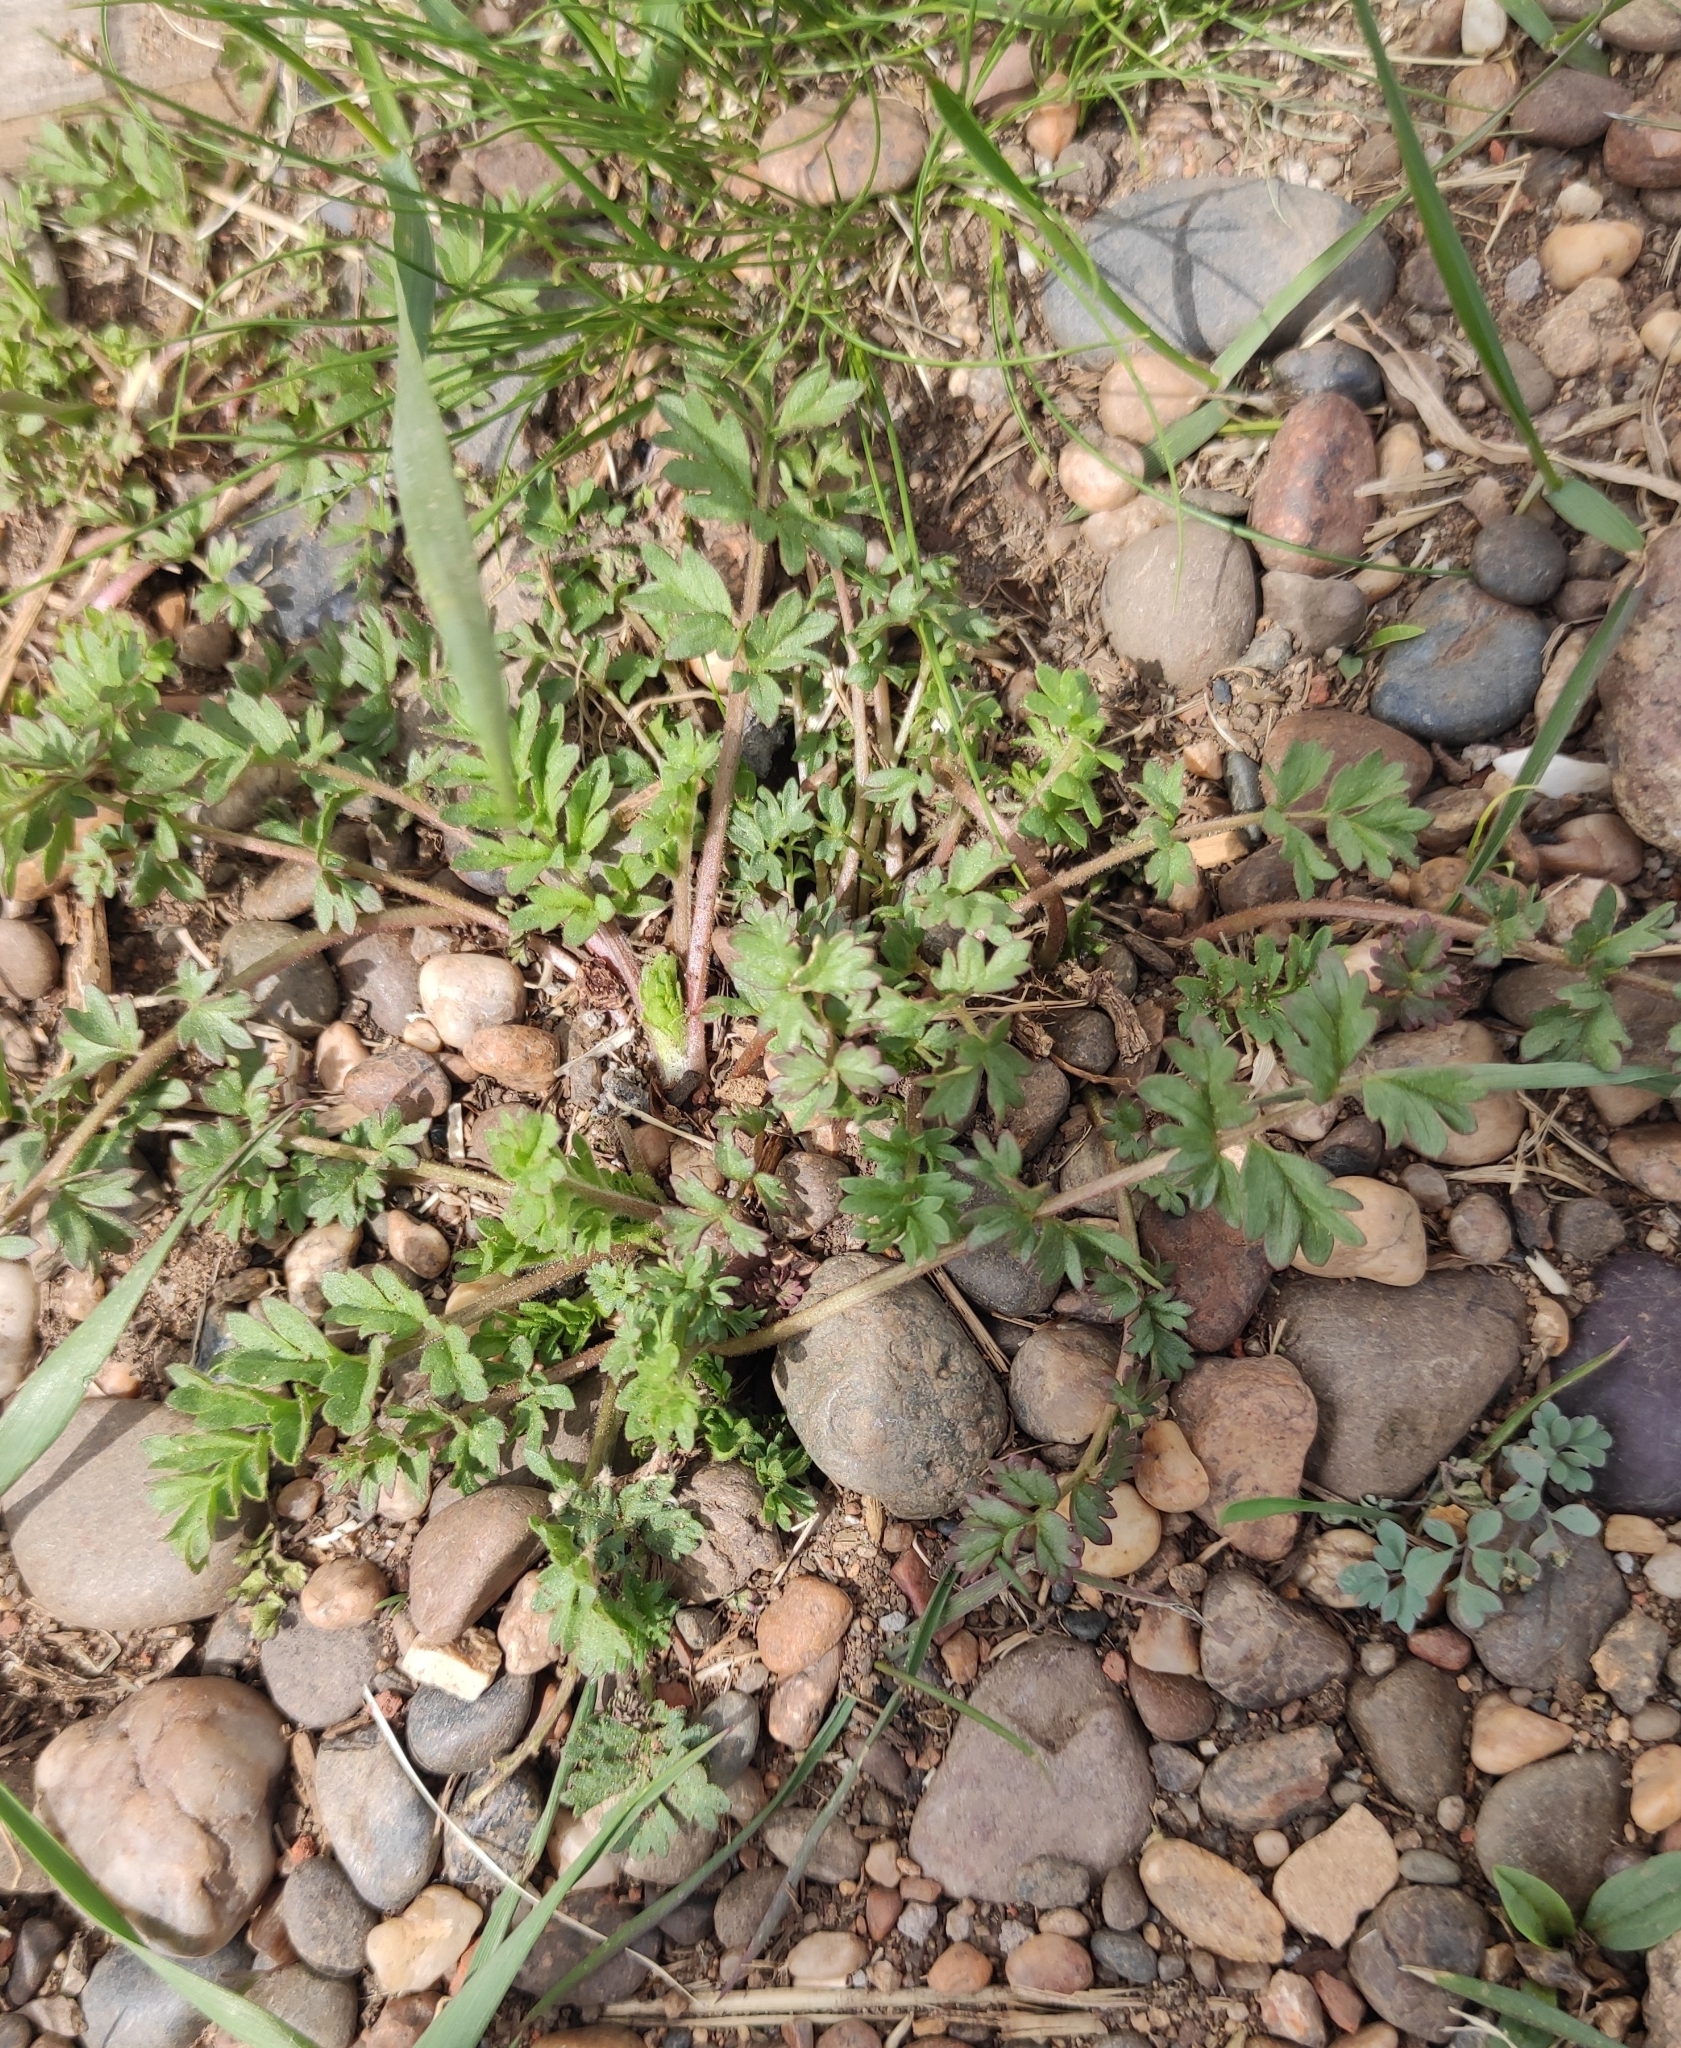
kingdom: Plantae
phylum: Tracheophyta
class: Magnoliopsida
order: Rosales
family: Rosaceae
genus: Potentilla
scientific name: Potentilla supina
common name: Prostrate cinquefoil
